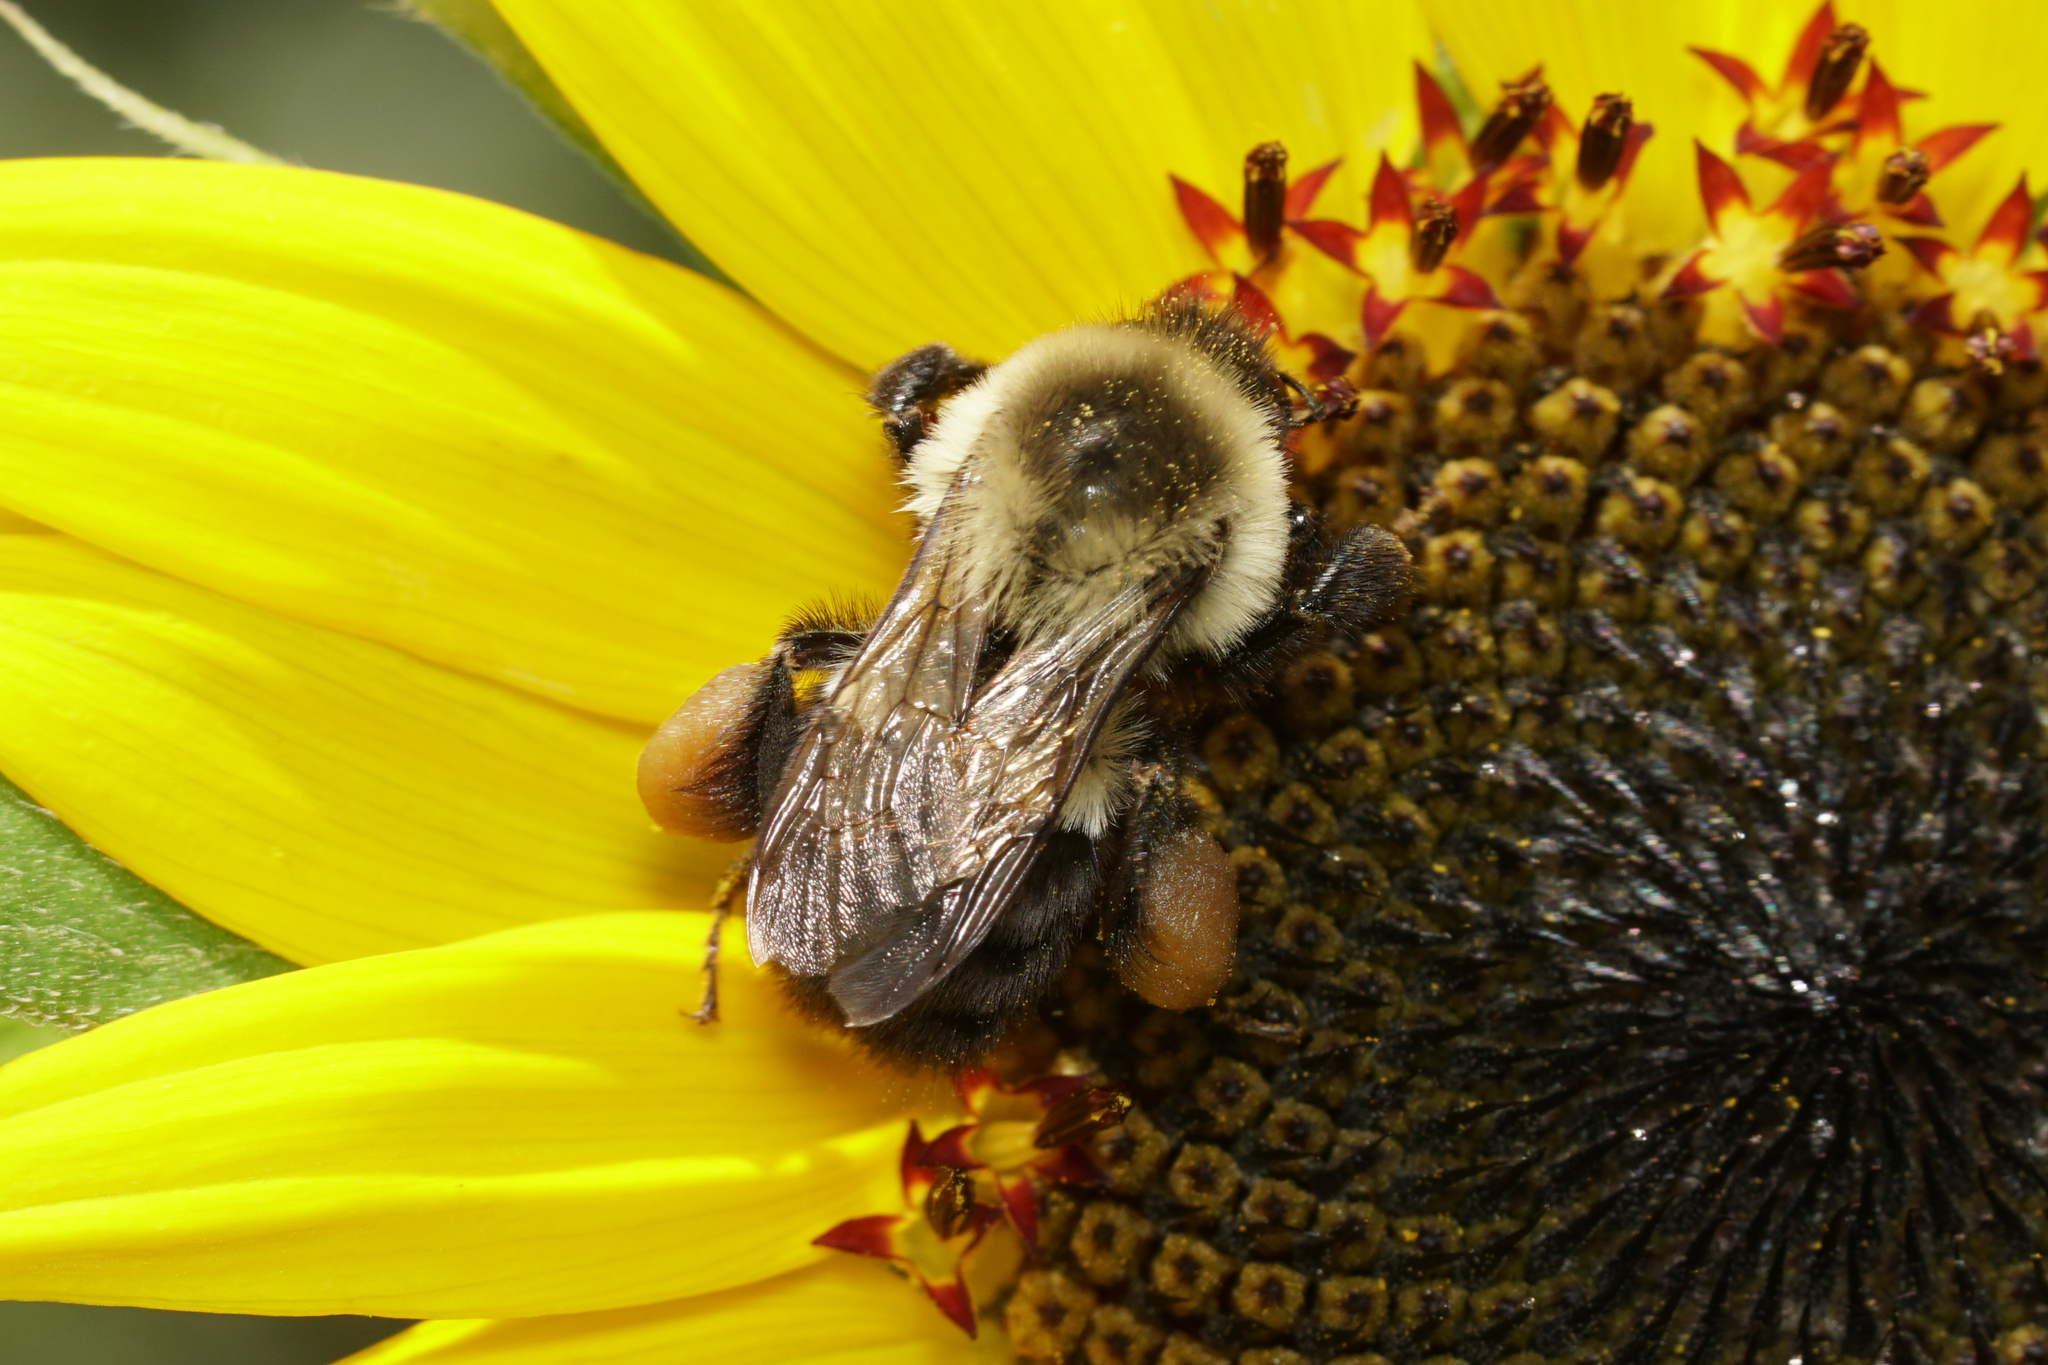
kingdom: Animalia
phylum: Arthropoda
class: Insecta
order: Hymenoptera
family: Apidae
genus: Bombus
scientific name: Bombus impatiens
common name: Common eastern bumble bee
